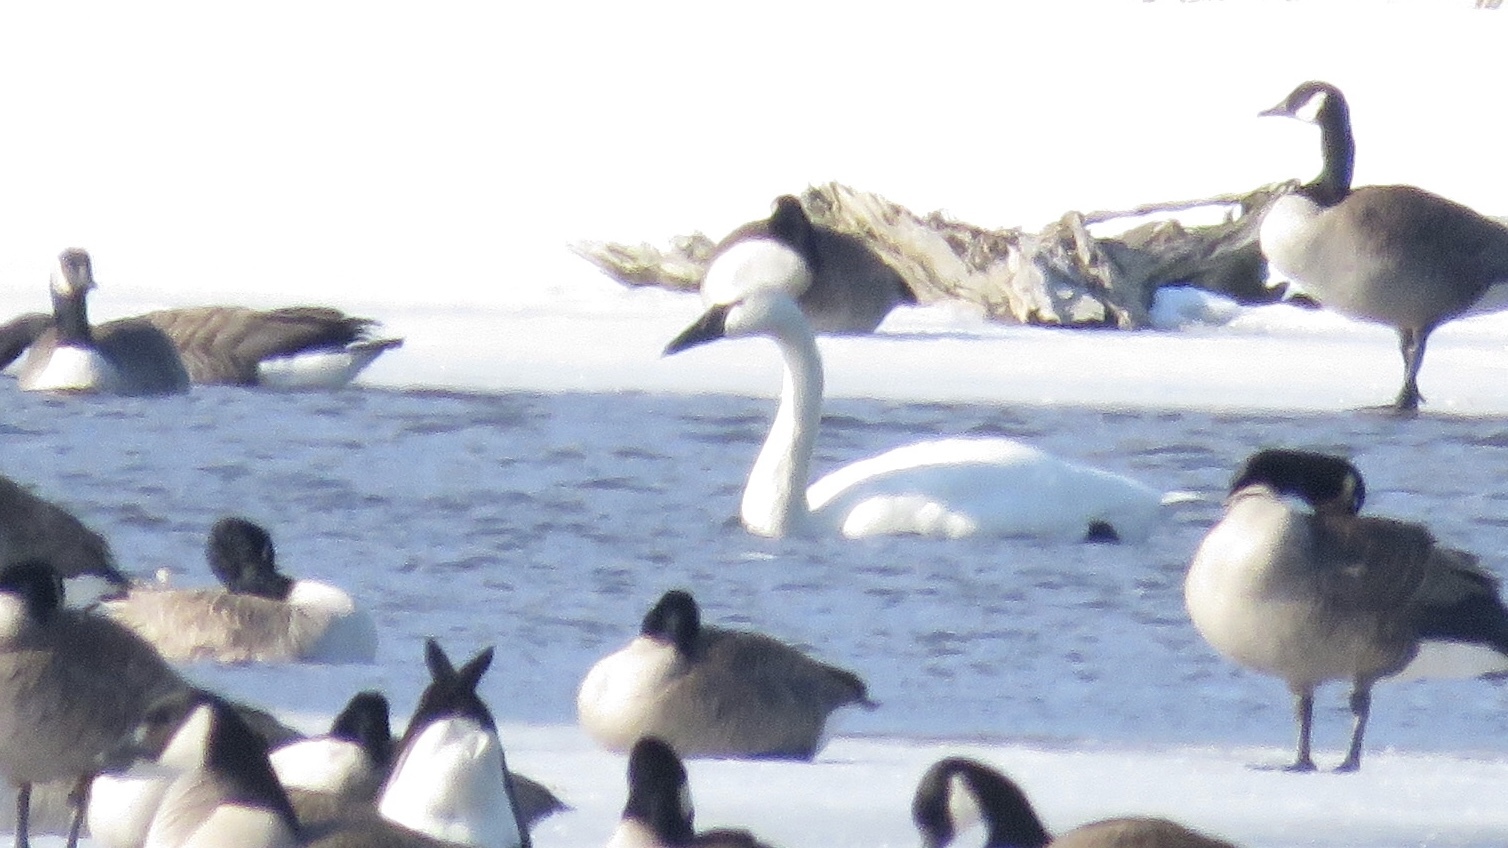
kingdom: Animalia
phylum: Chordata
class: Aves
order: Anseriformes
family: Anatidae
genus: Cygnus
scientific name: Cygnus buccinator
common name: Trumpeter swan
